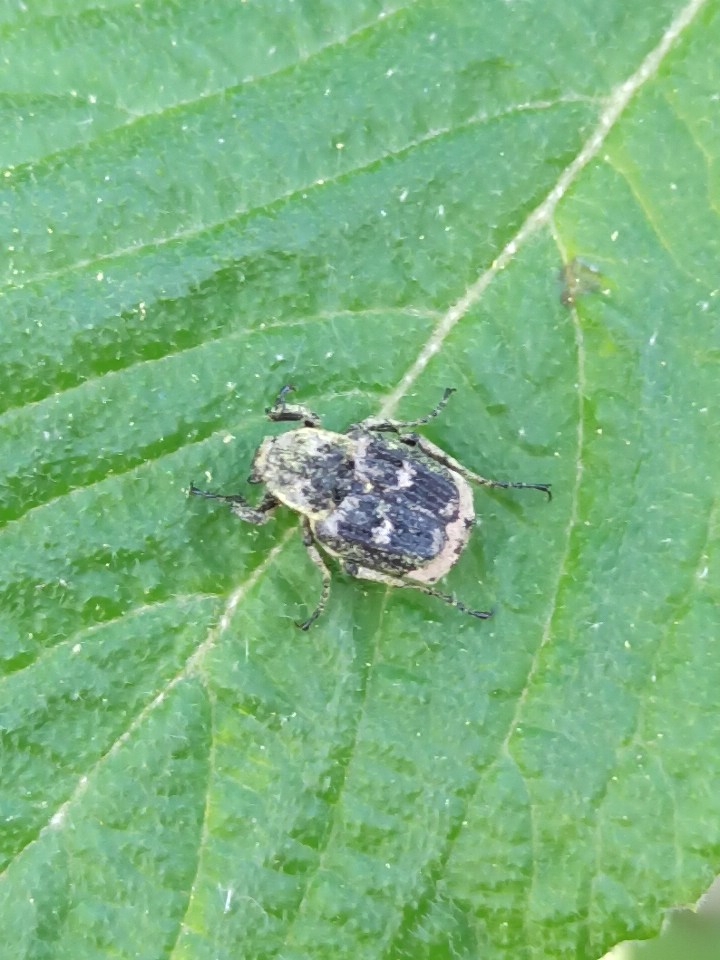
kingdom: Animalia
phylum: Arthropoda
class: Insecta
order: Coleoptera
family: Scarabaeidae
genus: Valgus
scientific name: Valgus hemipterus
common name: Bug flower chafer
